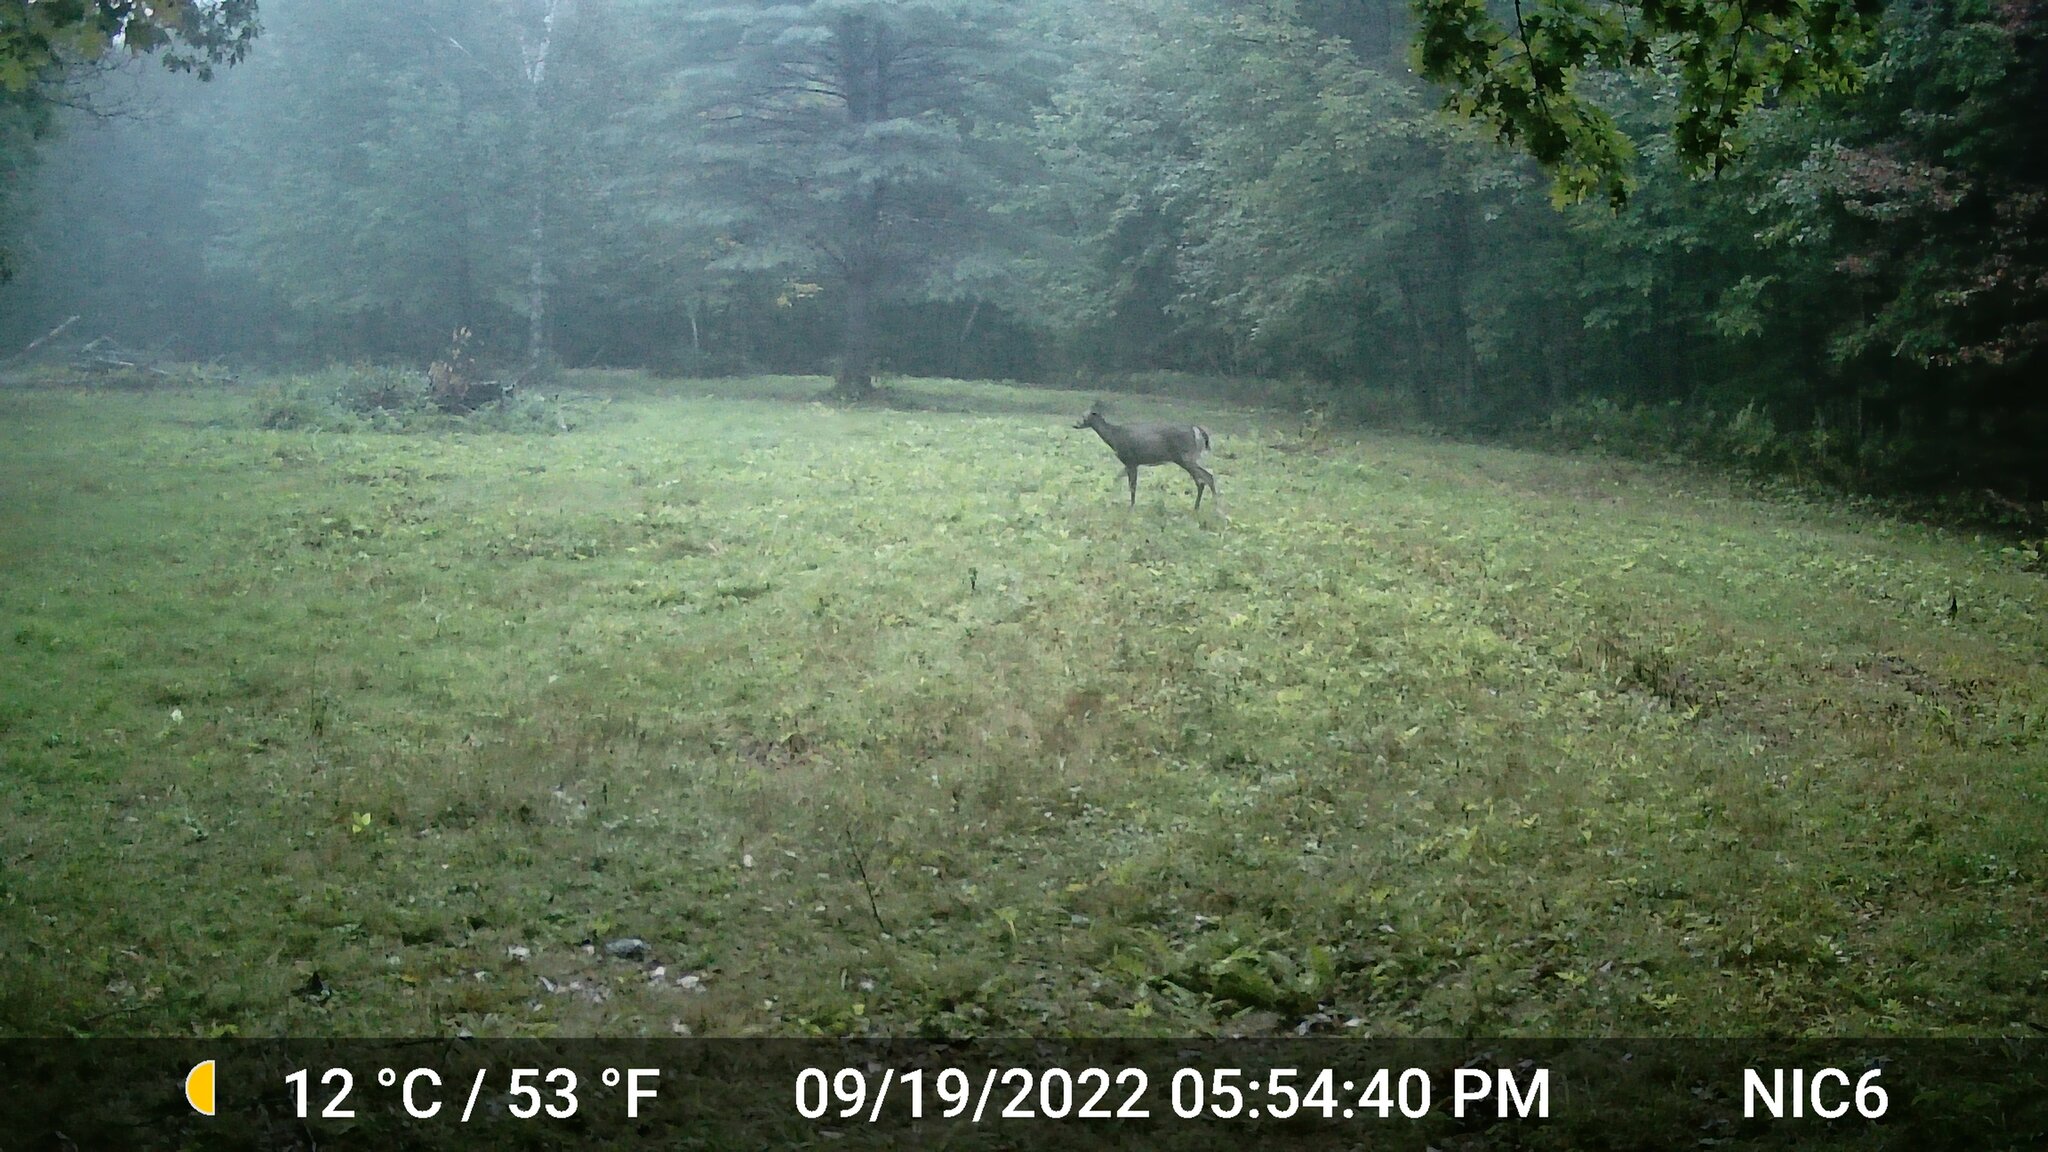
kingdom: Animalia
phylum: Chordata
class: Mammalia
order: Artiodactyla
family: Cervidae
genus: Odocoileus
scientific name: Odocoileus virginianus
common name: White-tailed deer
